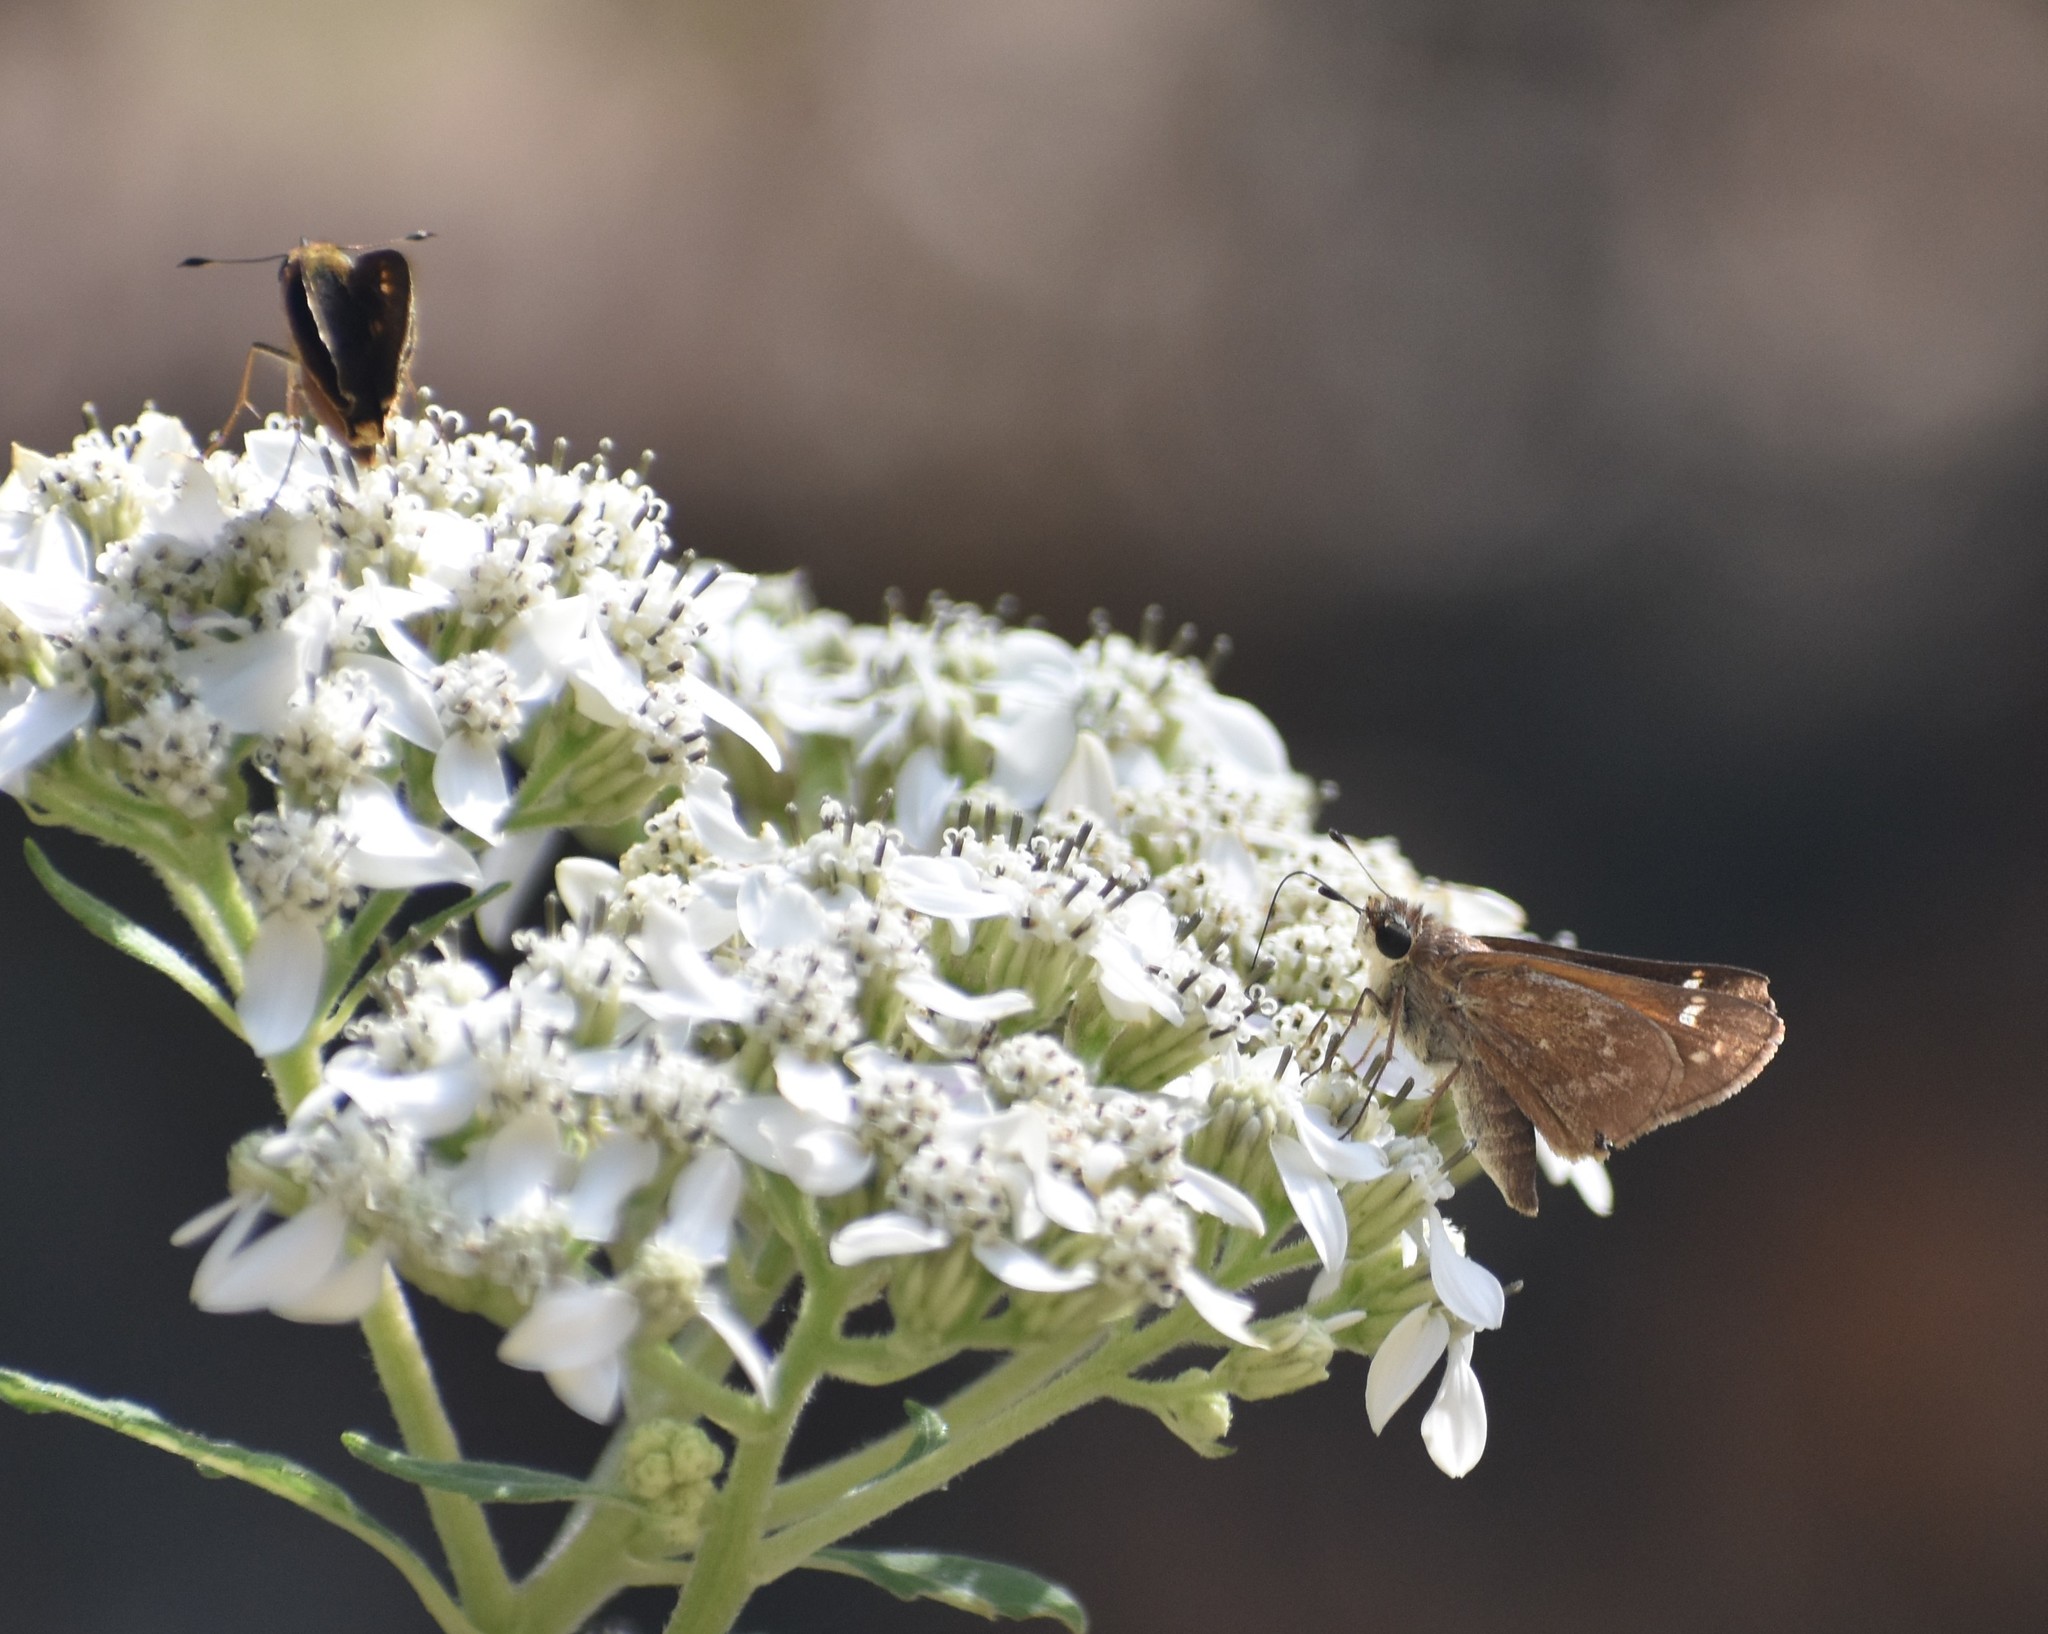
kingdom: Animalia
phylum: Arthropoda
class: Insecta
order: Lepidoptera
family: Hesperiidae
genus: Atalopedes
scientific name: Atalopedes
